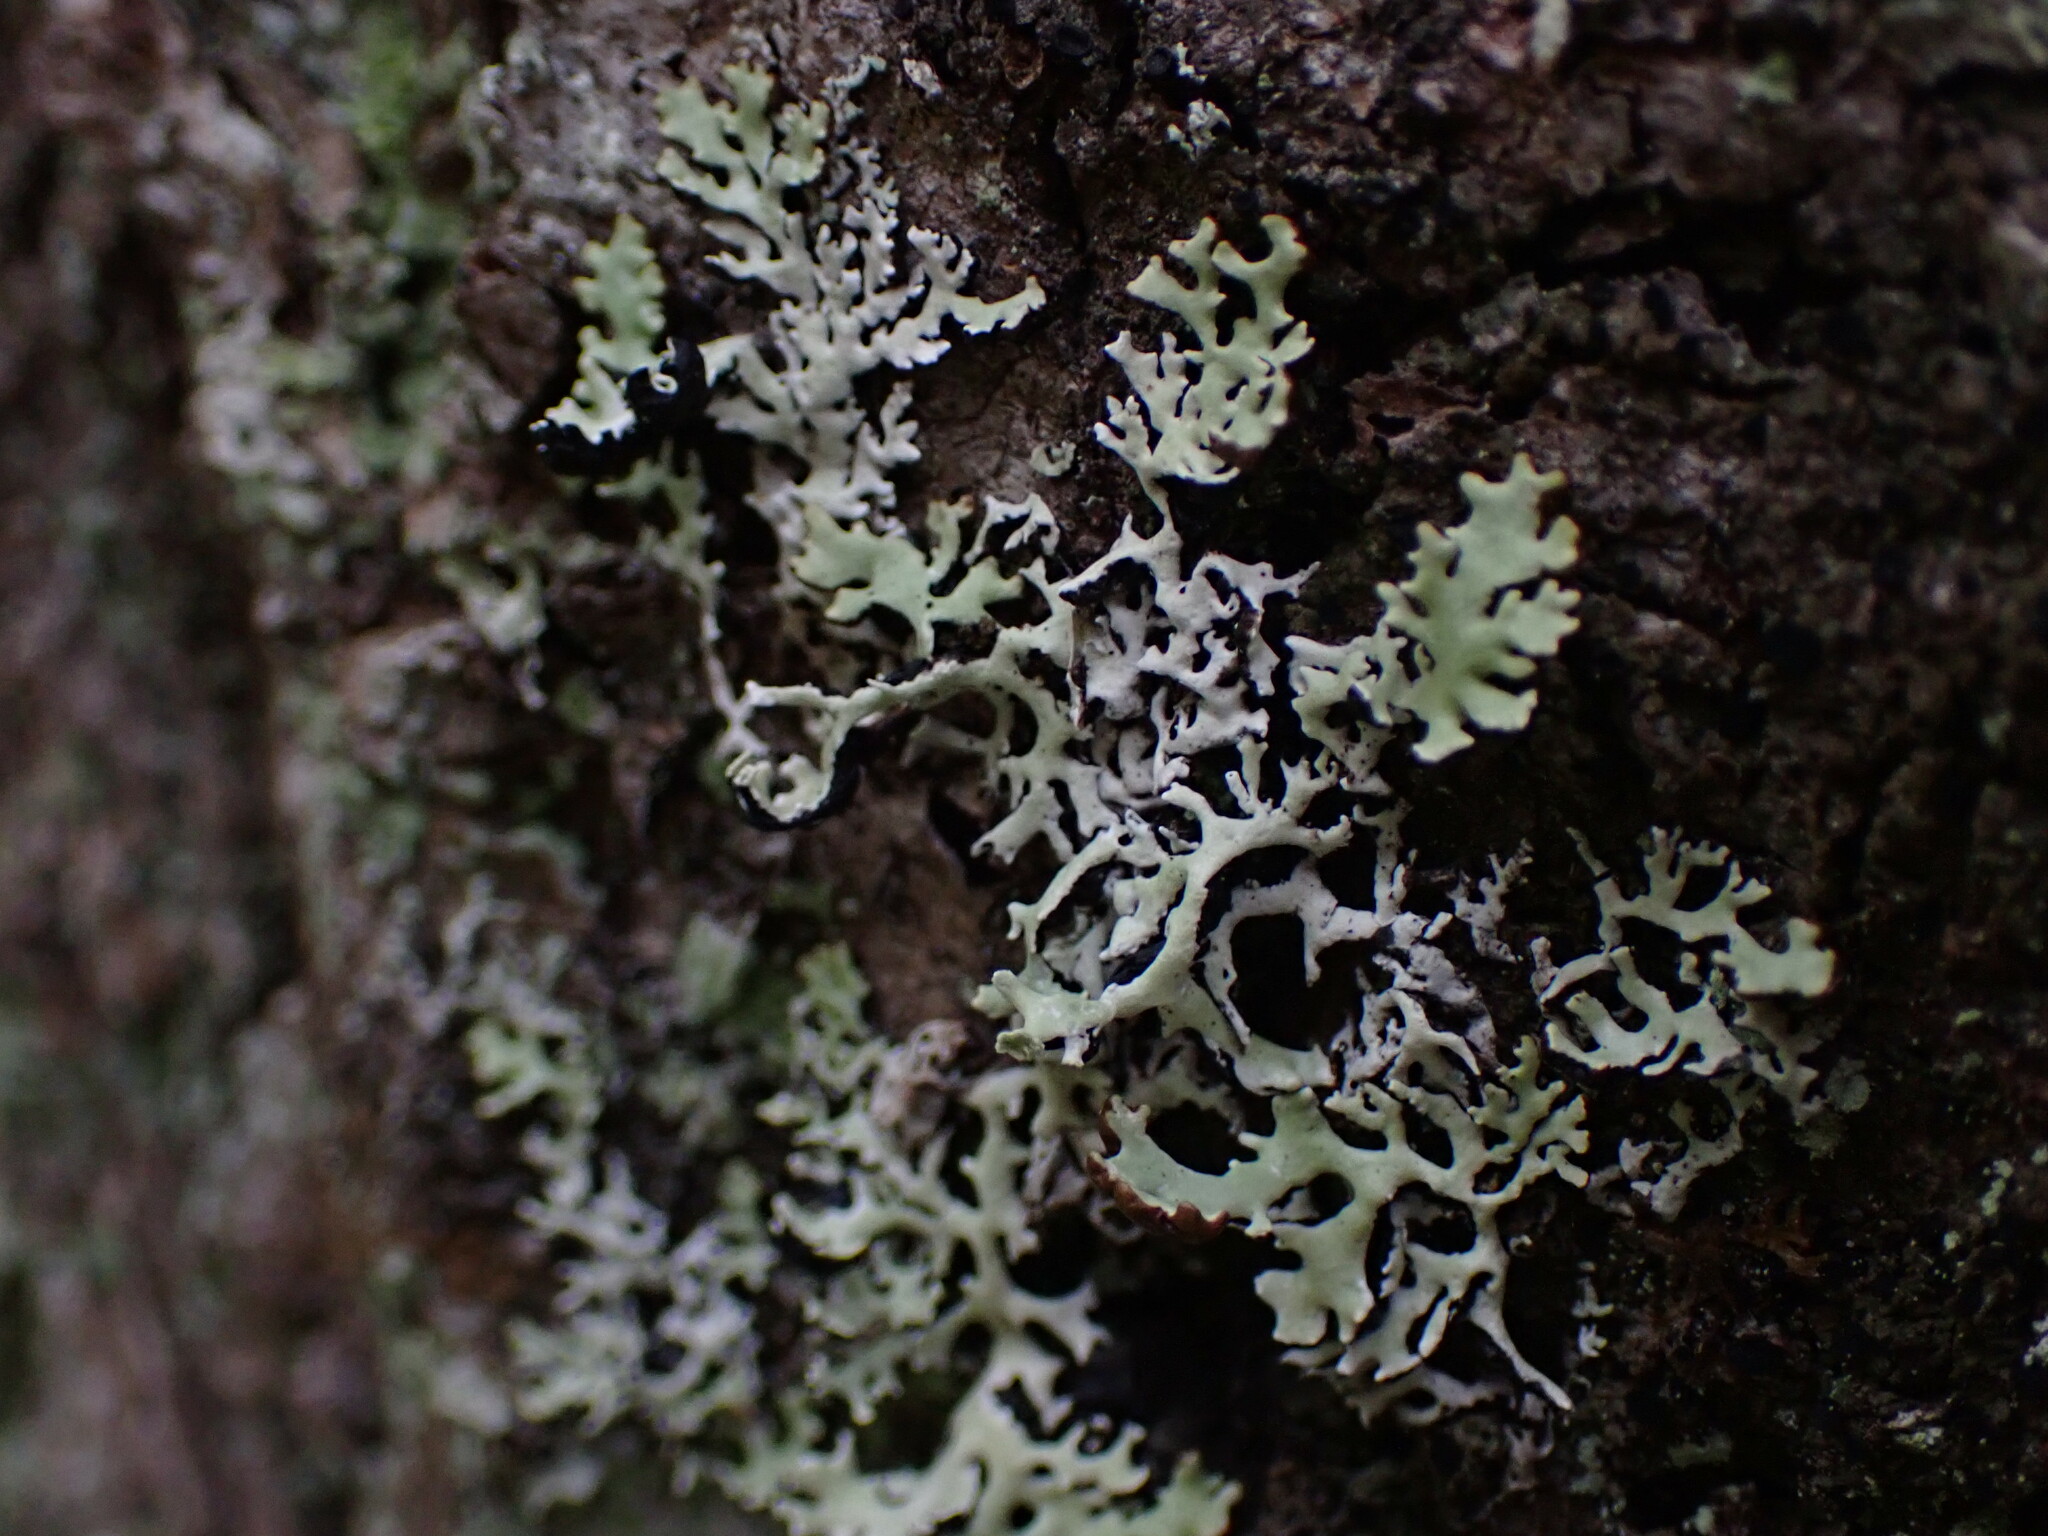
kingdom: Fungi
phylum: Ascomycota
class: Lecanoromycetes
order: Lecanorales
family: Parmeliaceae
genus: Hypogymnia
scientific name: Hypogymnia physodes
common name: Dark crottle
